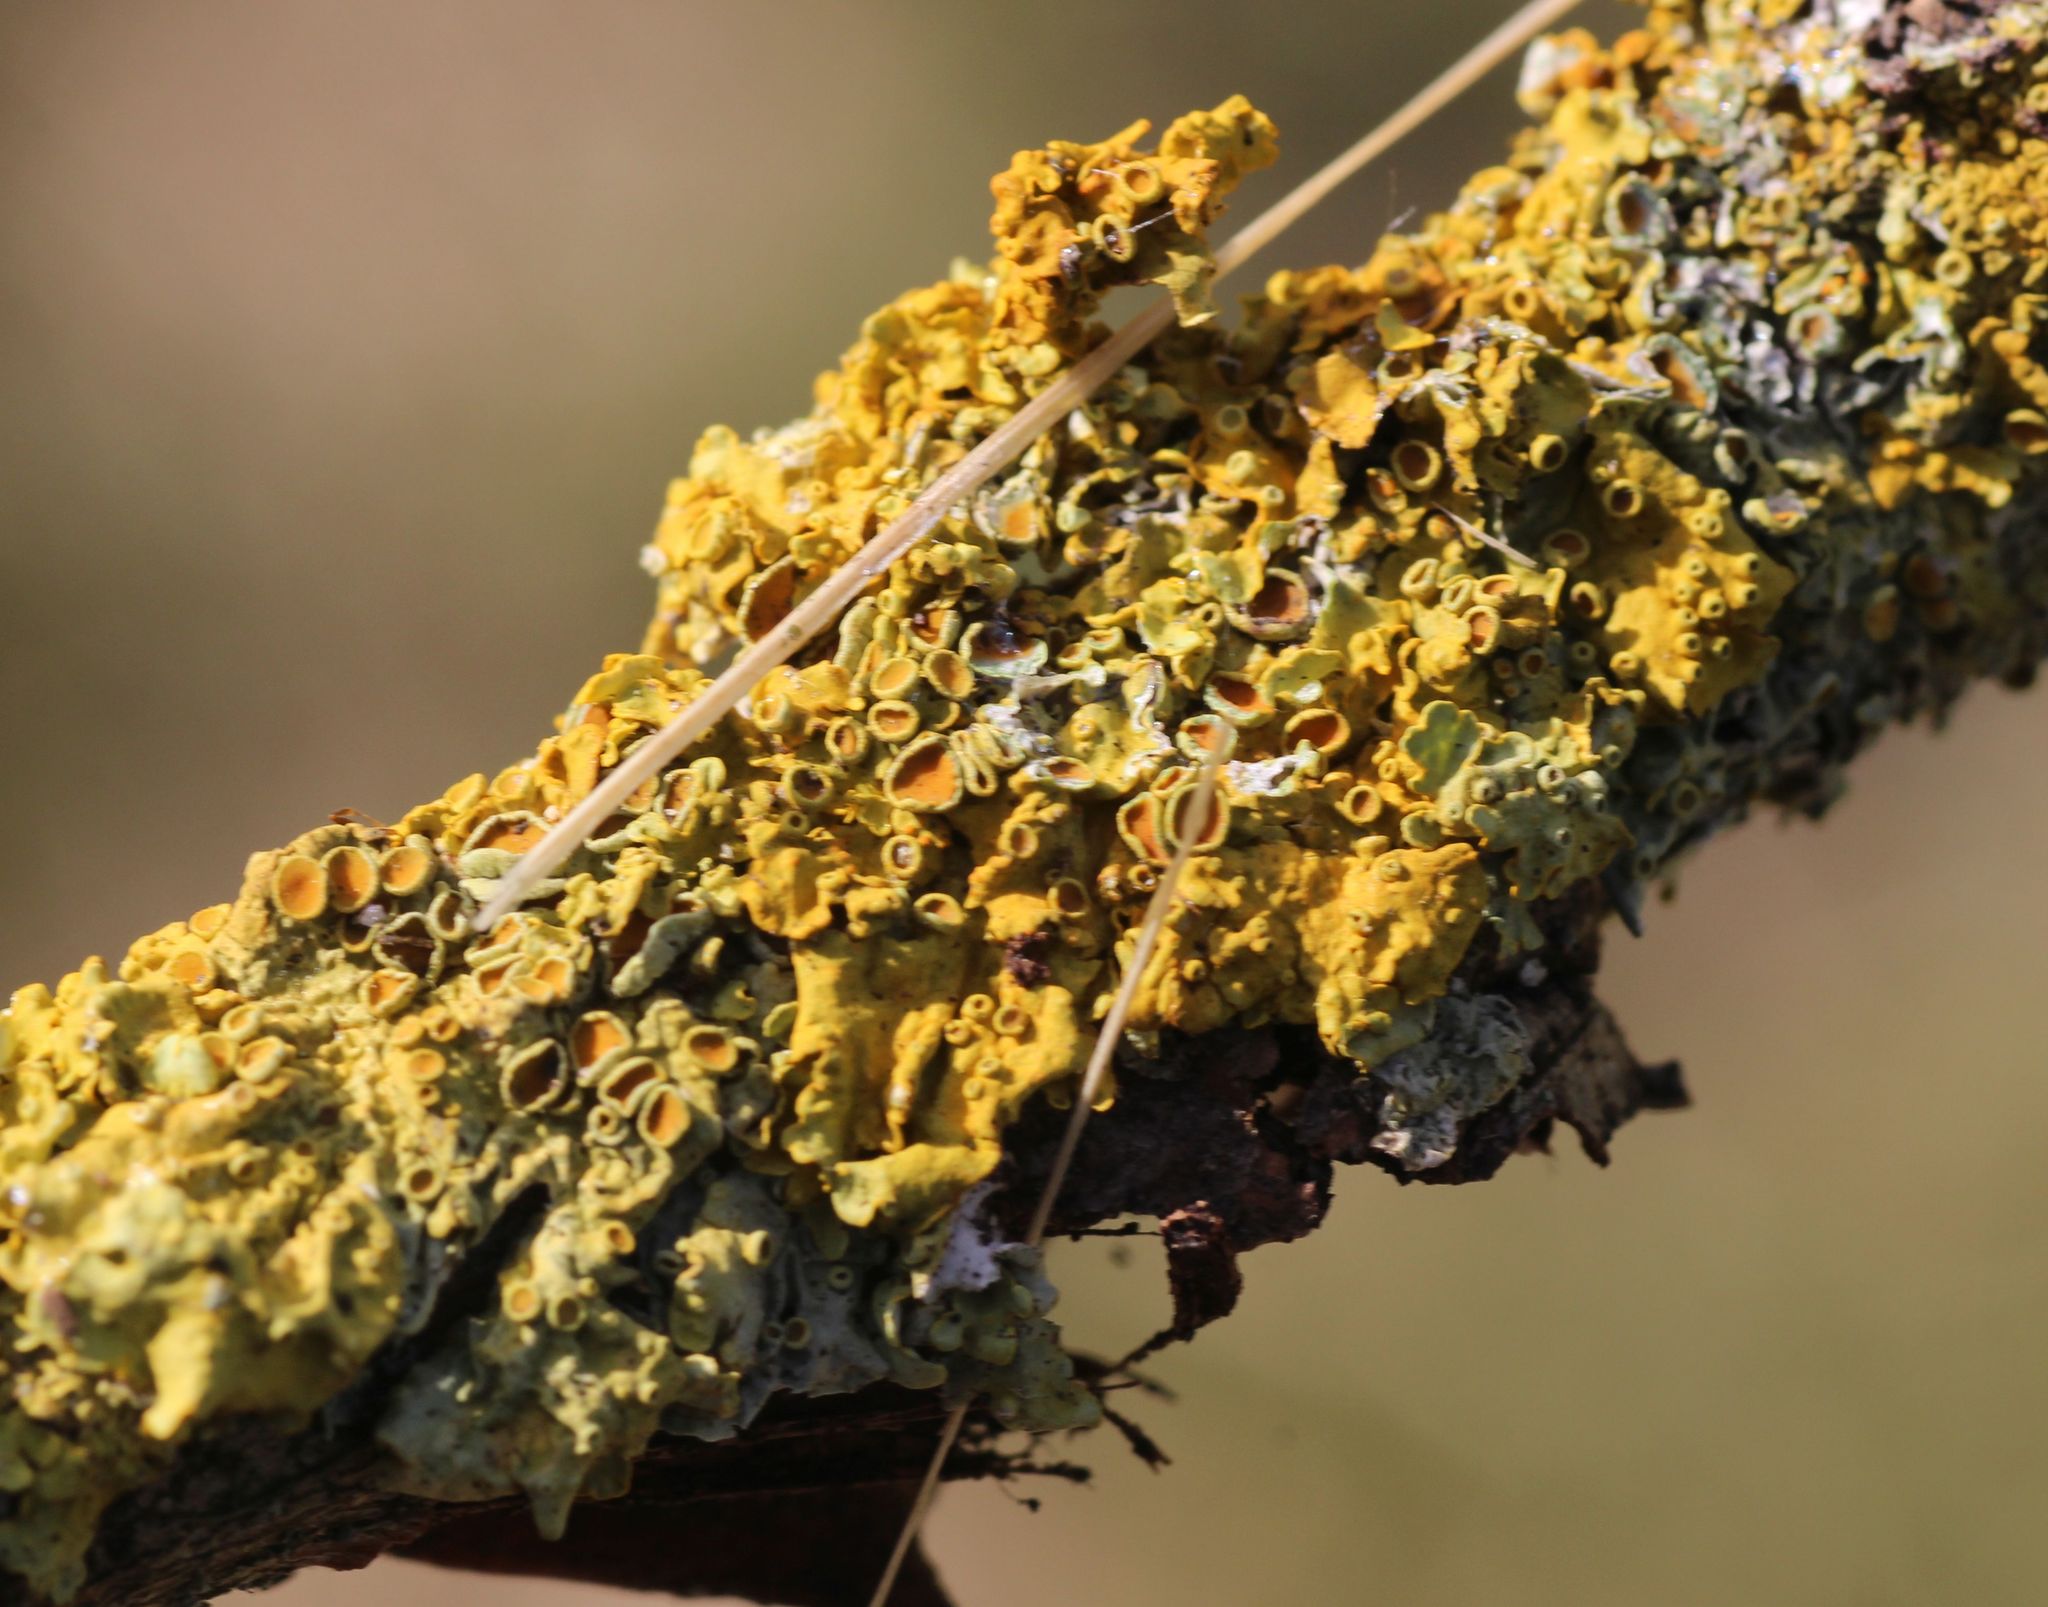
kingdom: Fungi
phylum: Ascomycota
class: Lecanoromycetes
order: Teloschistales
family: Teloschistaceae
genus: Xanthoria
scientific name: Xanthoria parietina
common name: Common orange lichen
